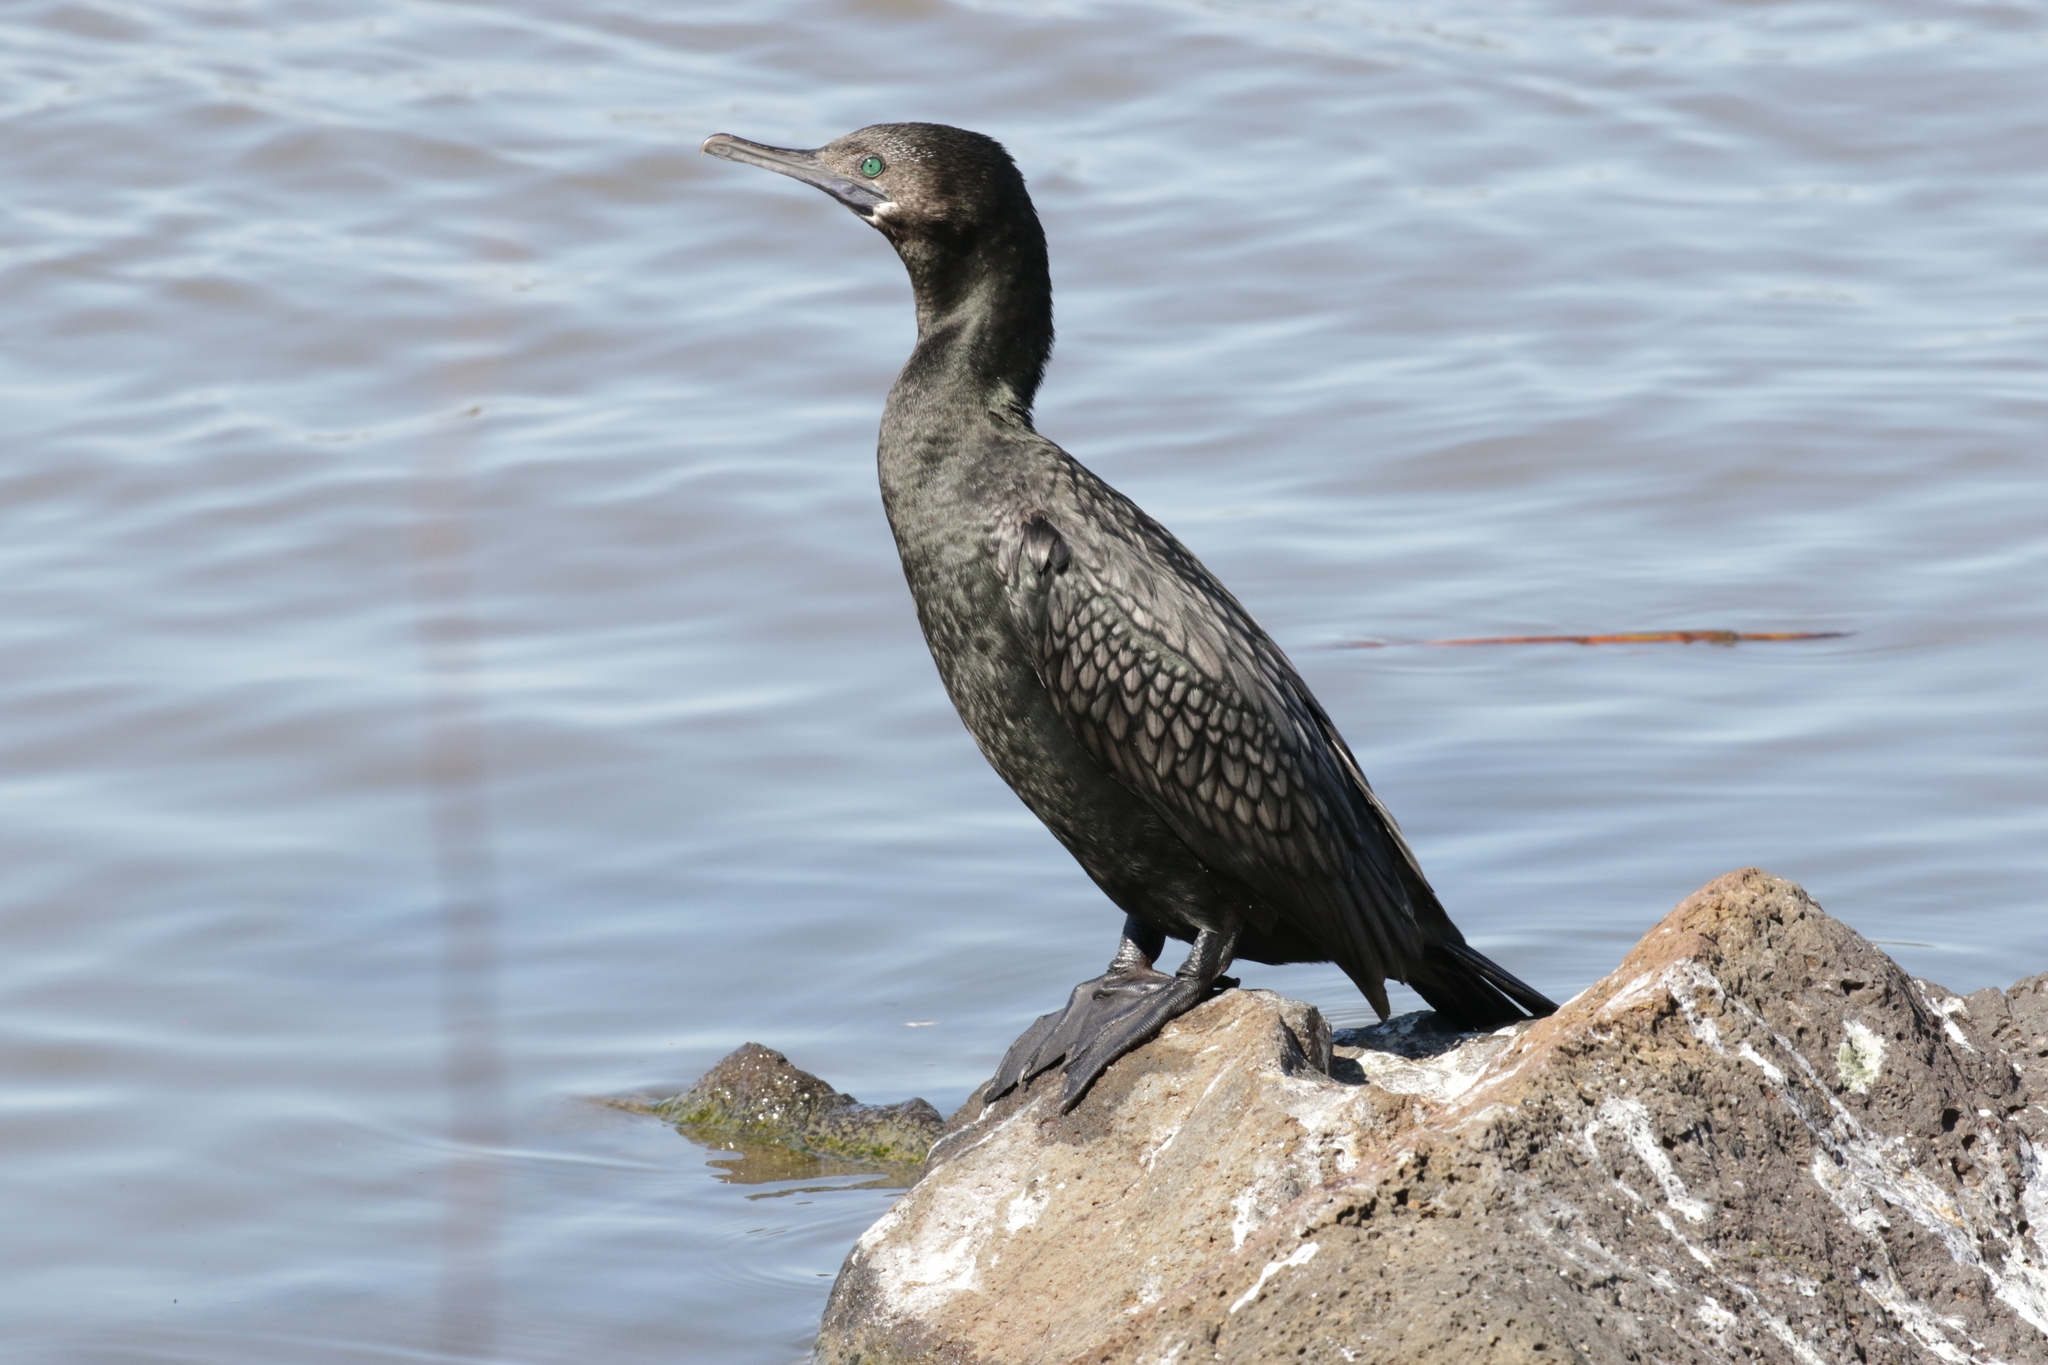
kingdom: Animalia
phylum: Chordata
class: Aves
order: Suliformes
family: Phalacrocoracidae
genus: Phalacrocorax
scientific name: Phalacrocorax sulcirostris
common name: Little black cormorant
